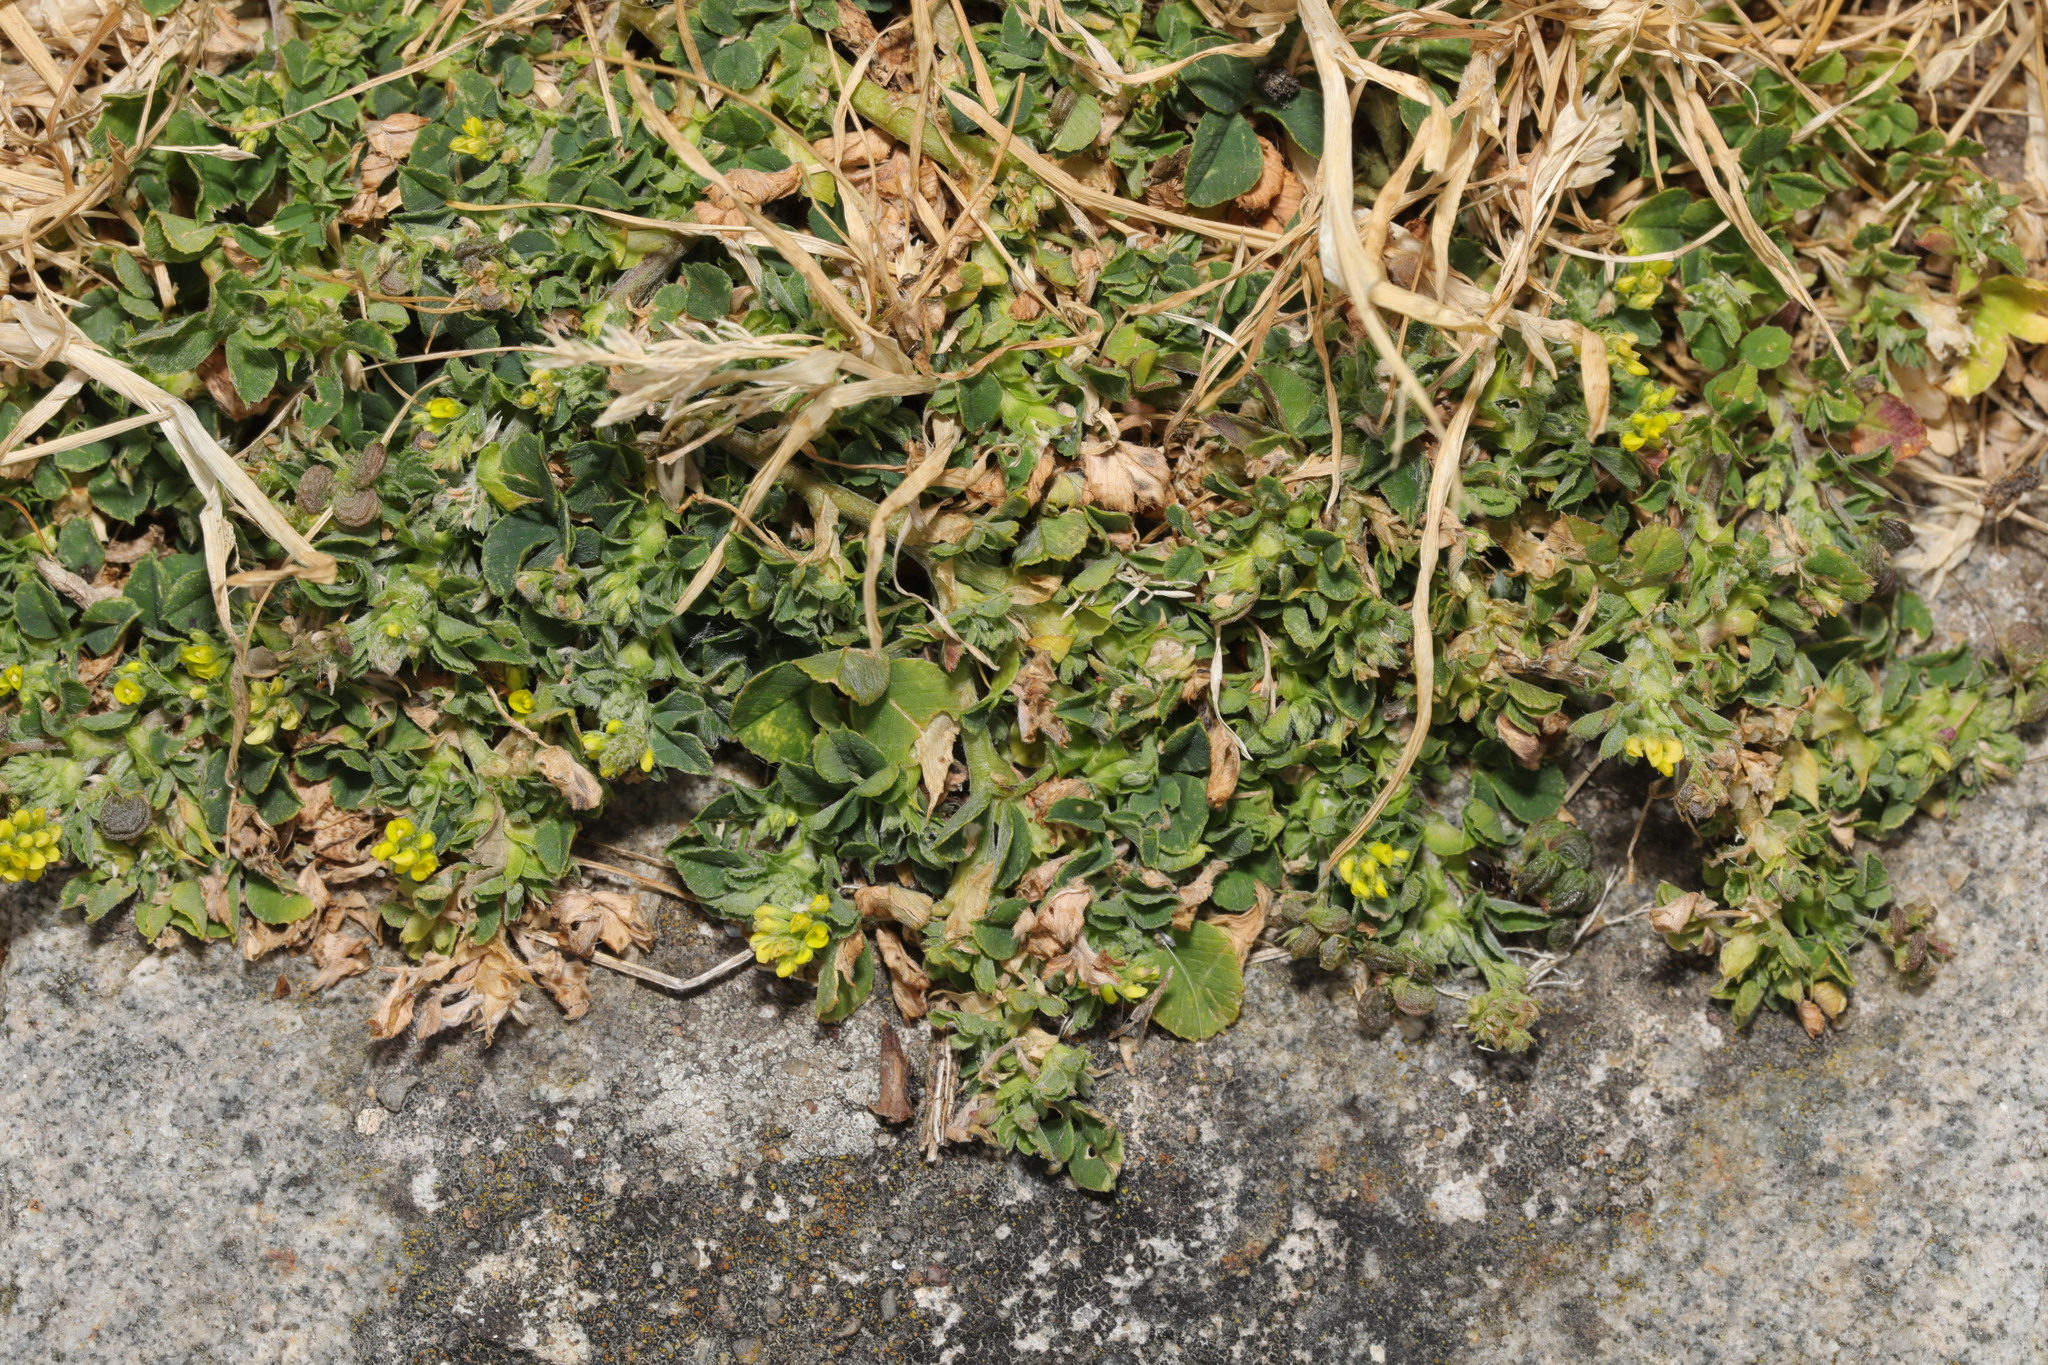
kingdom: Plantae
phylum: Tracheophyta
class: Magnoliopsida
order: Fabales
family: Fabaceae
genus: Medicago
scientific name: Medicago lupulina
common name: Black medick
